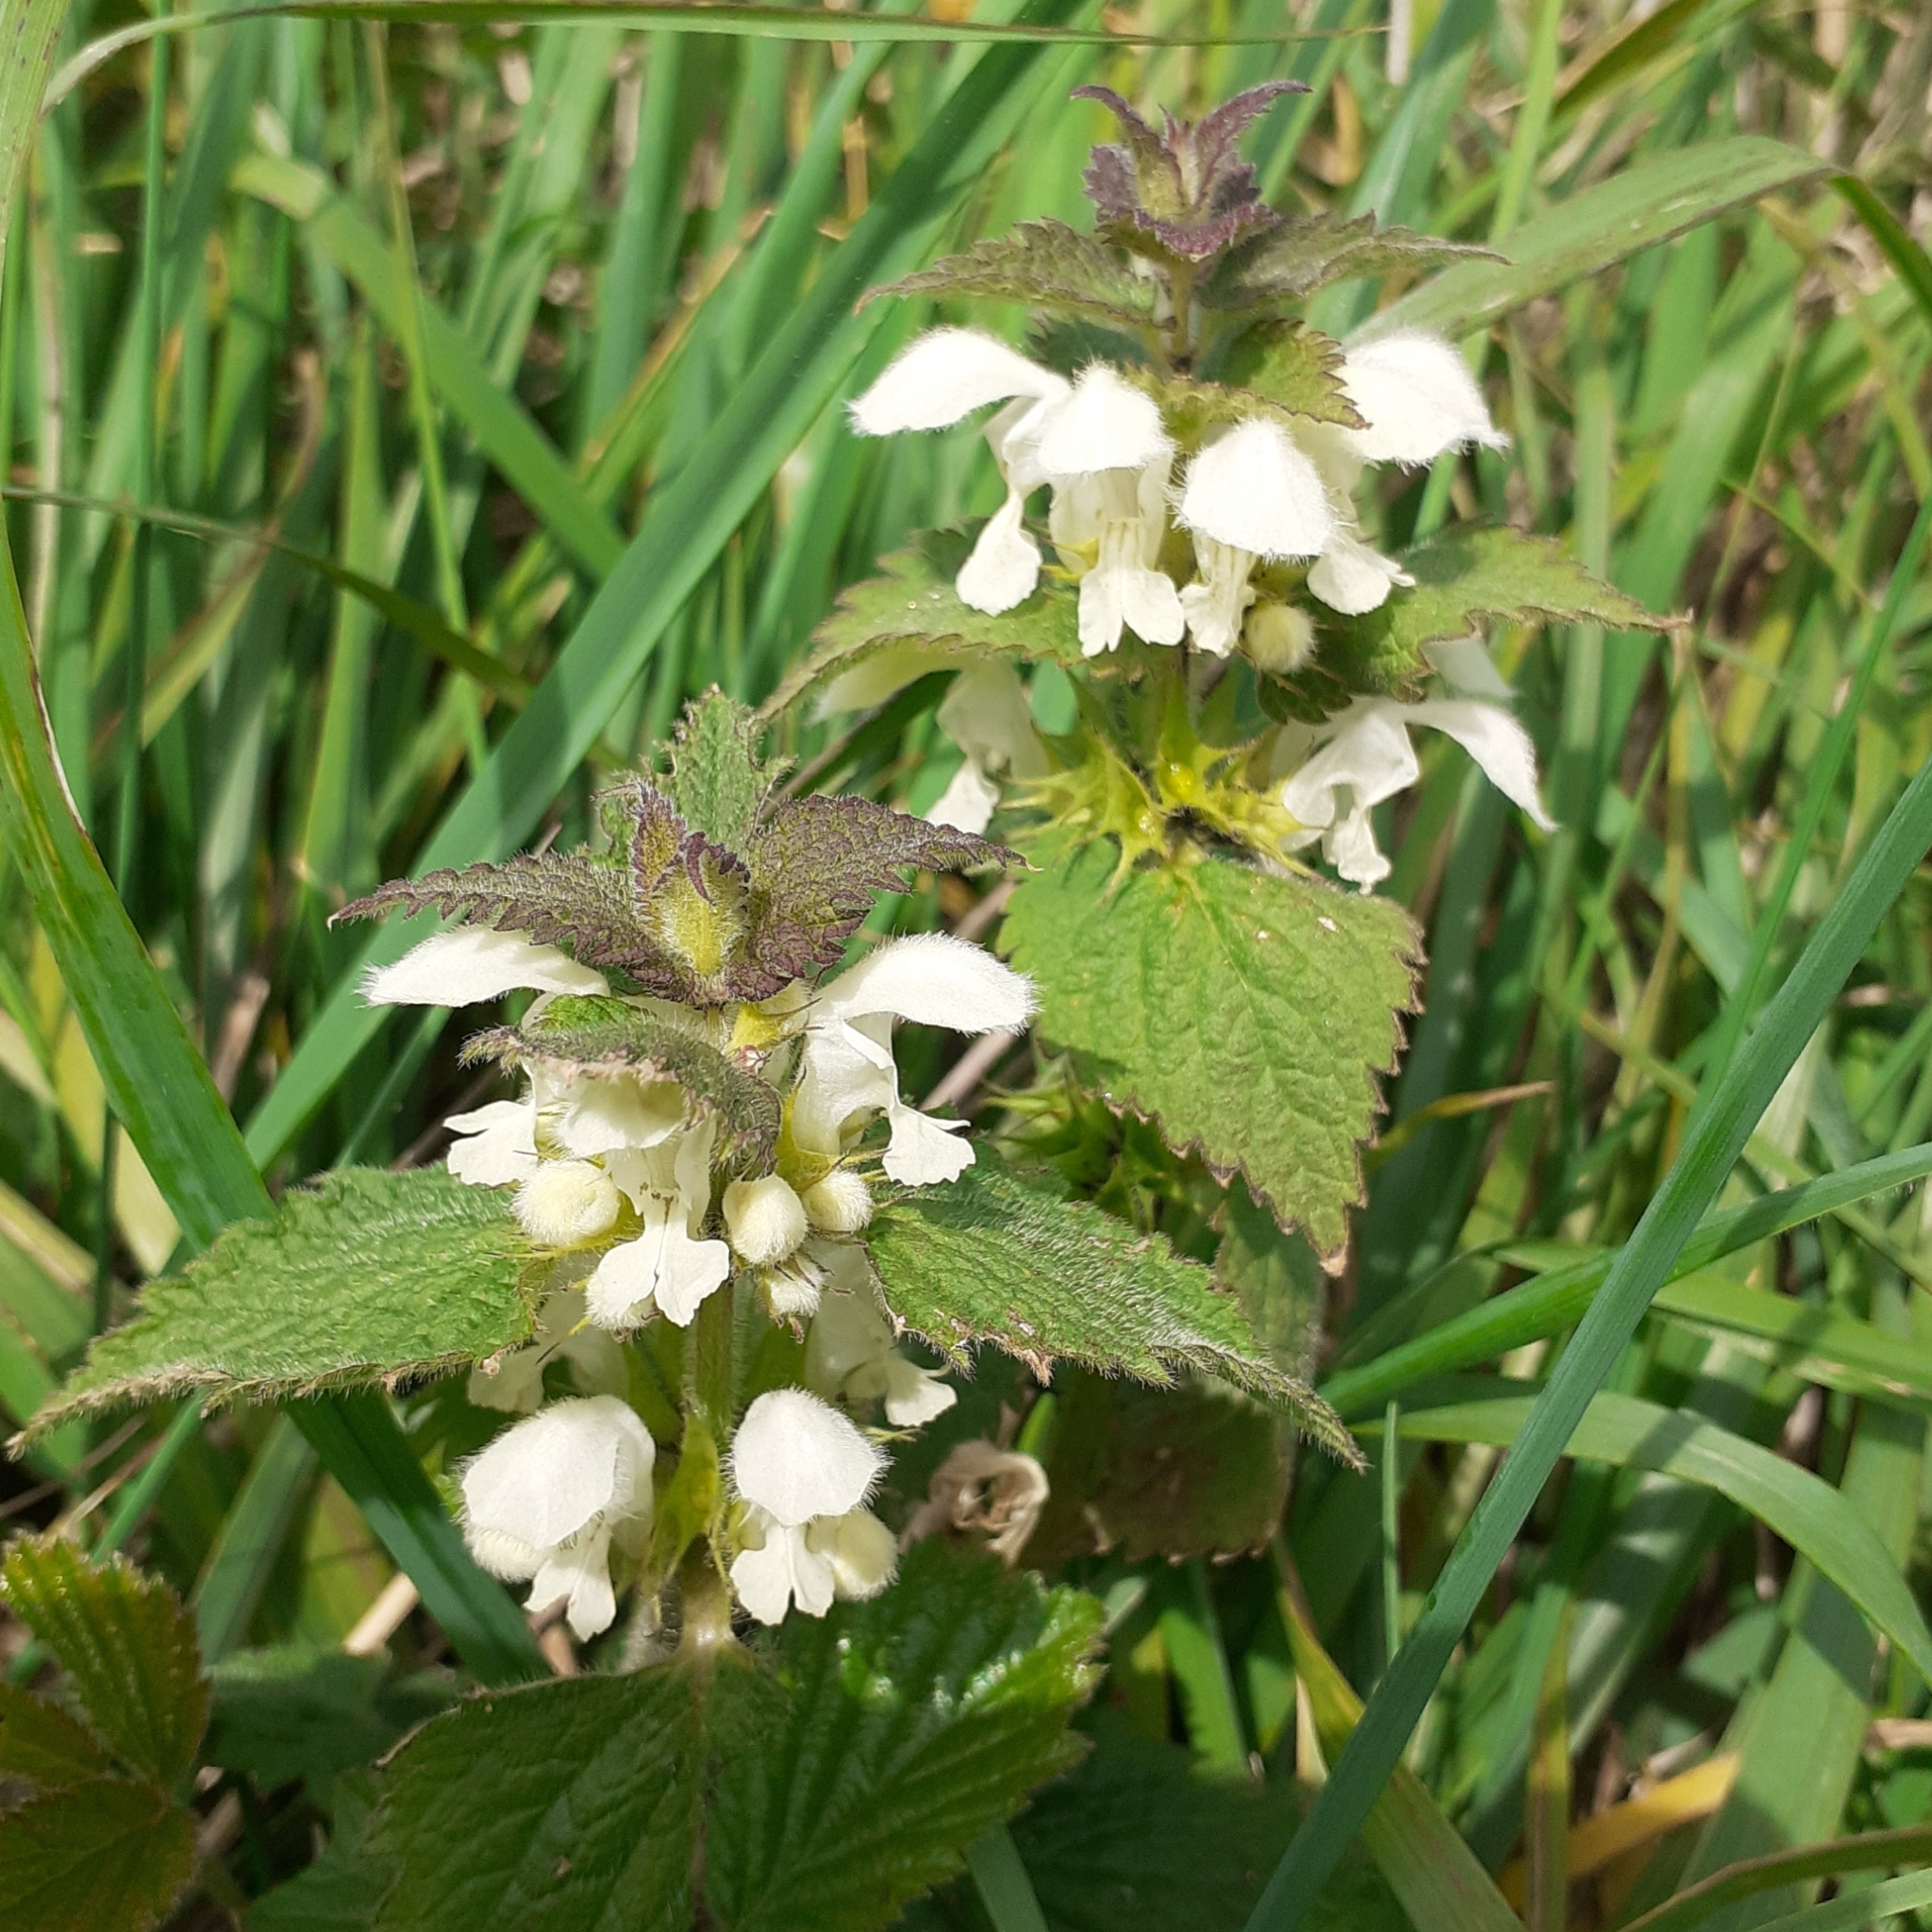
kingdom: Plantae
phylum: Tracheophyta
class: Magnoliopsida
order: Lamiales
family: Lamiaceae
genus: Lamium
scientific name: Lamium album
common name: White dead-nettle
